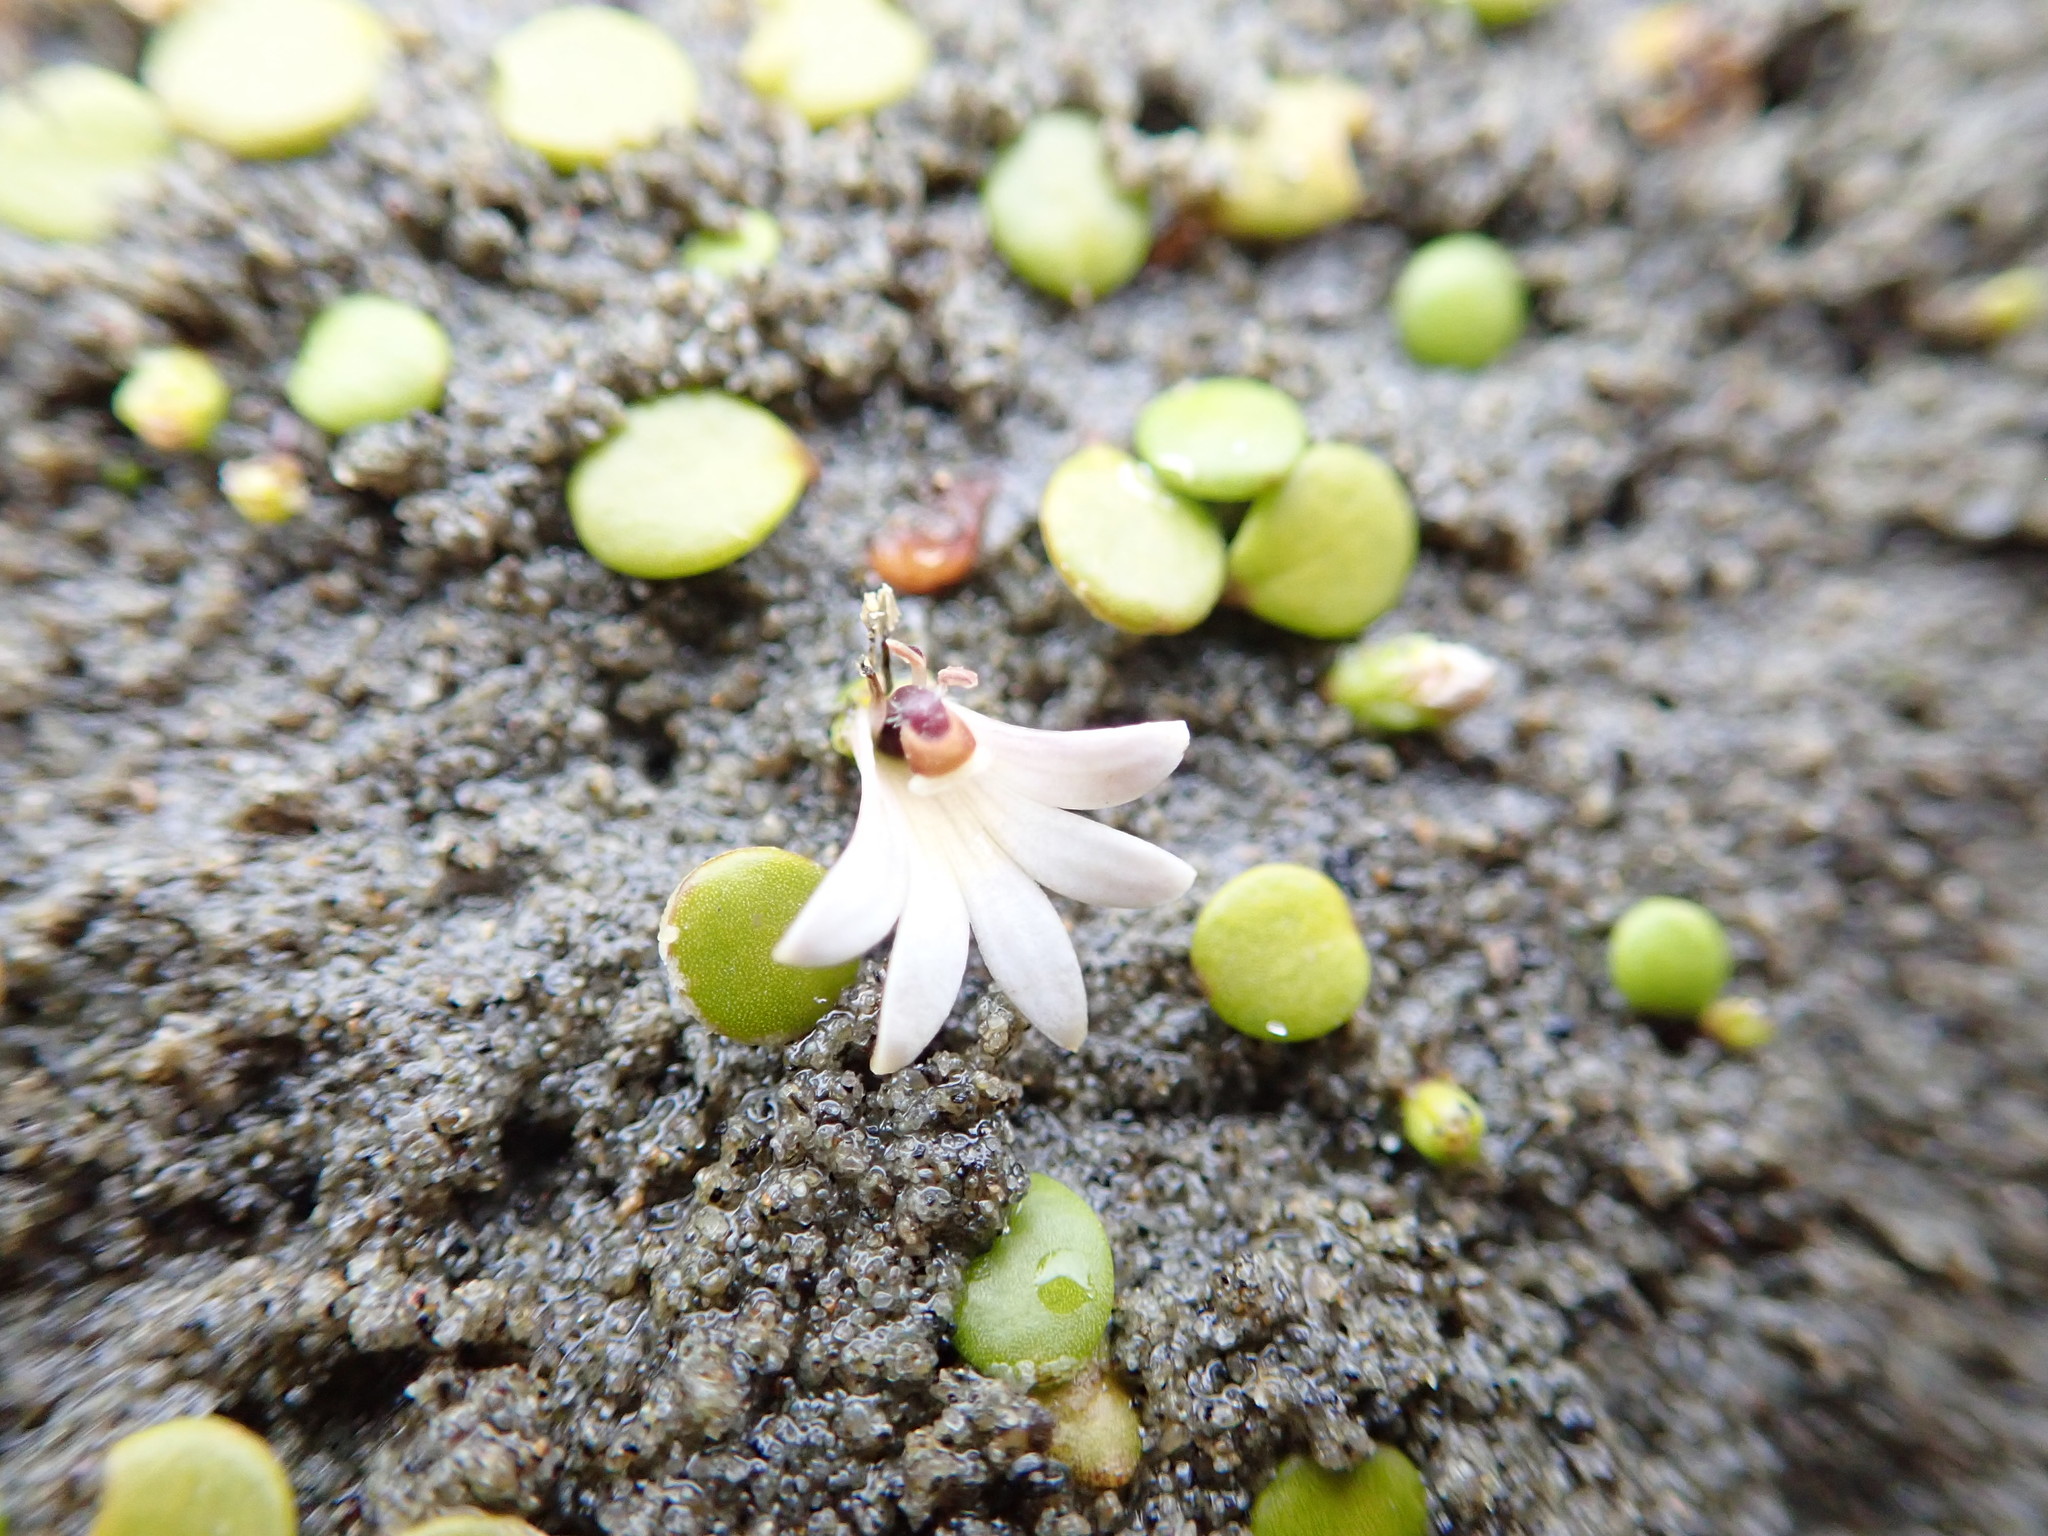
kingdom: Plantae
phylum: Tracheophyta
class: Magnoliopsida
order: Asterales
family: Goodeniaceae
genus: Goodenia
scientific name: Goodenia heenanii
